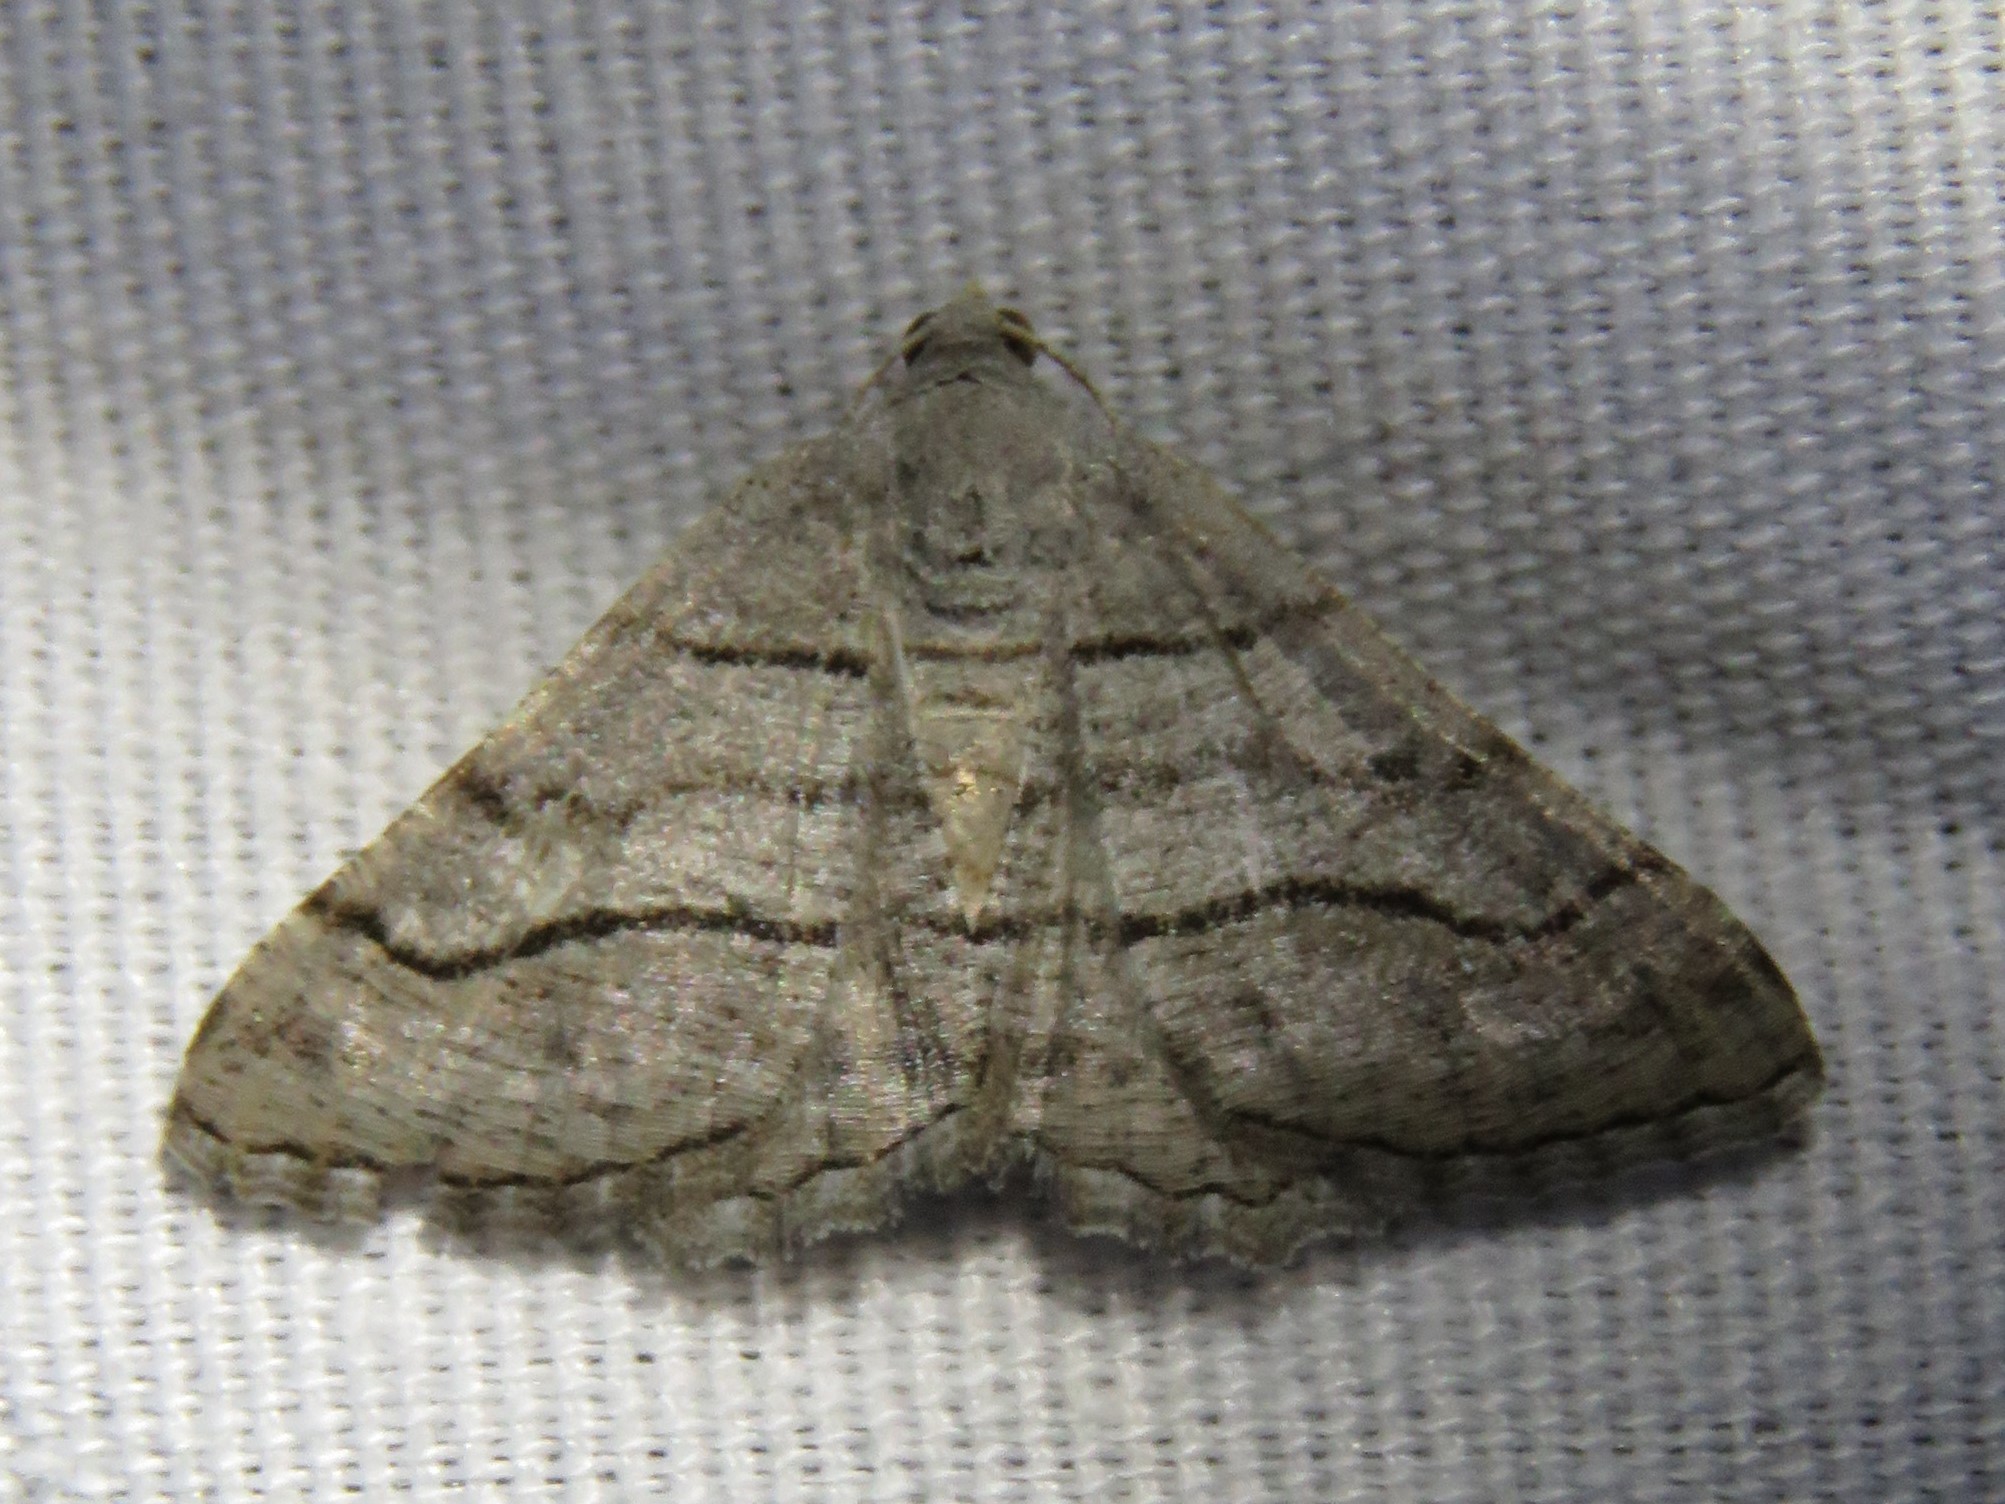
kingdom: Animalia
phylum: Arthropoda
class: Insecta
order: Lepidoptera
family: Geometridae
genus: Digrammia
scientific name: Digrammia continuata
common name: Curve-lined angle
